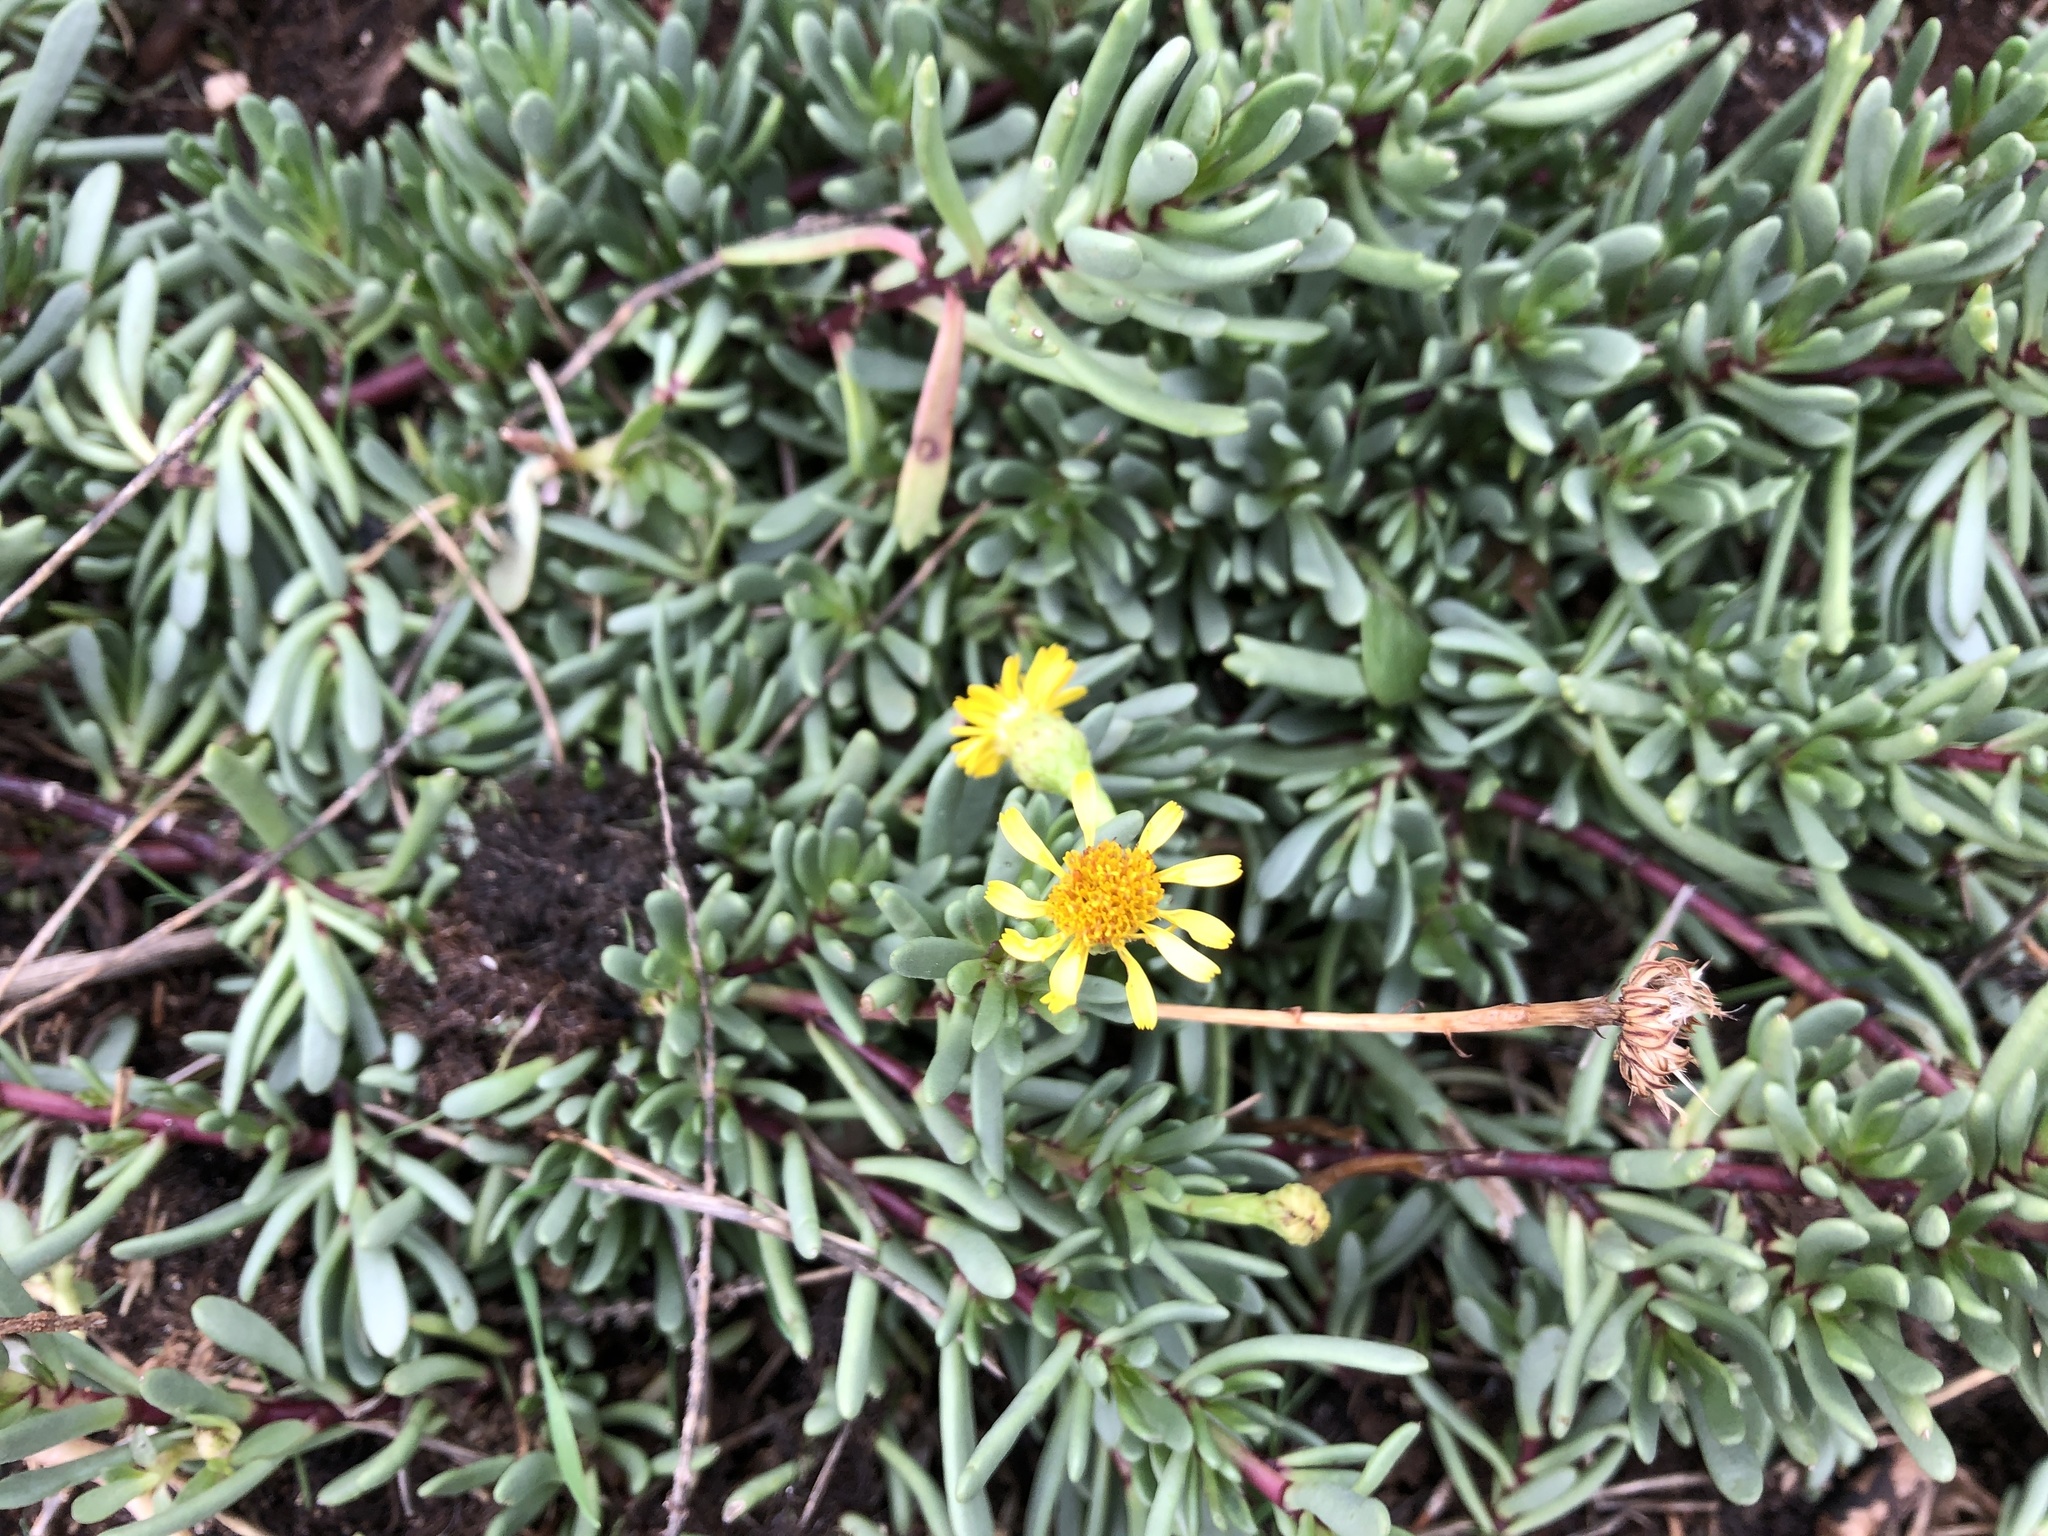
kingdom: Plantae
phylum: Tracheophyta
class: Magnoliopsida
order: Asterales
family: Asteraceae
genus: Limbarda
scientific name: Limbarda crithmoides
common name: Golden samphire
